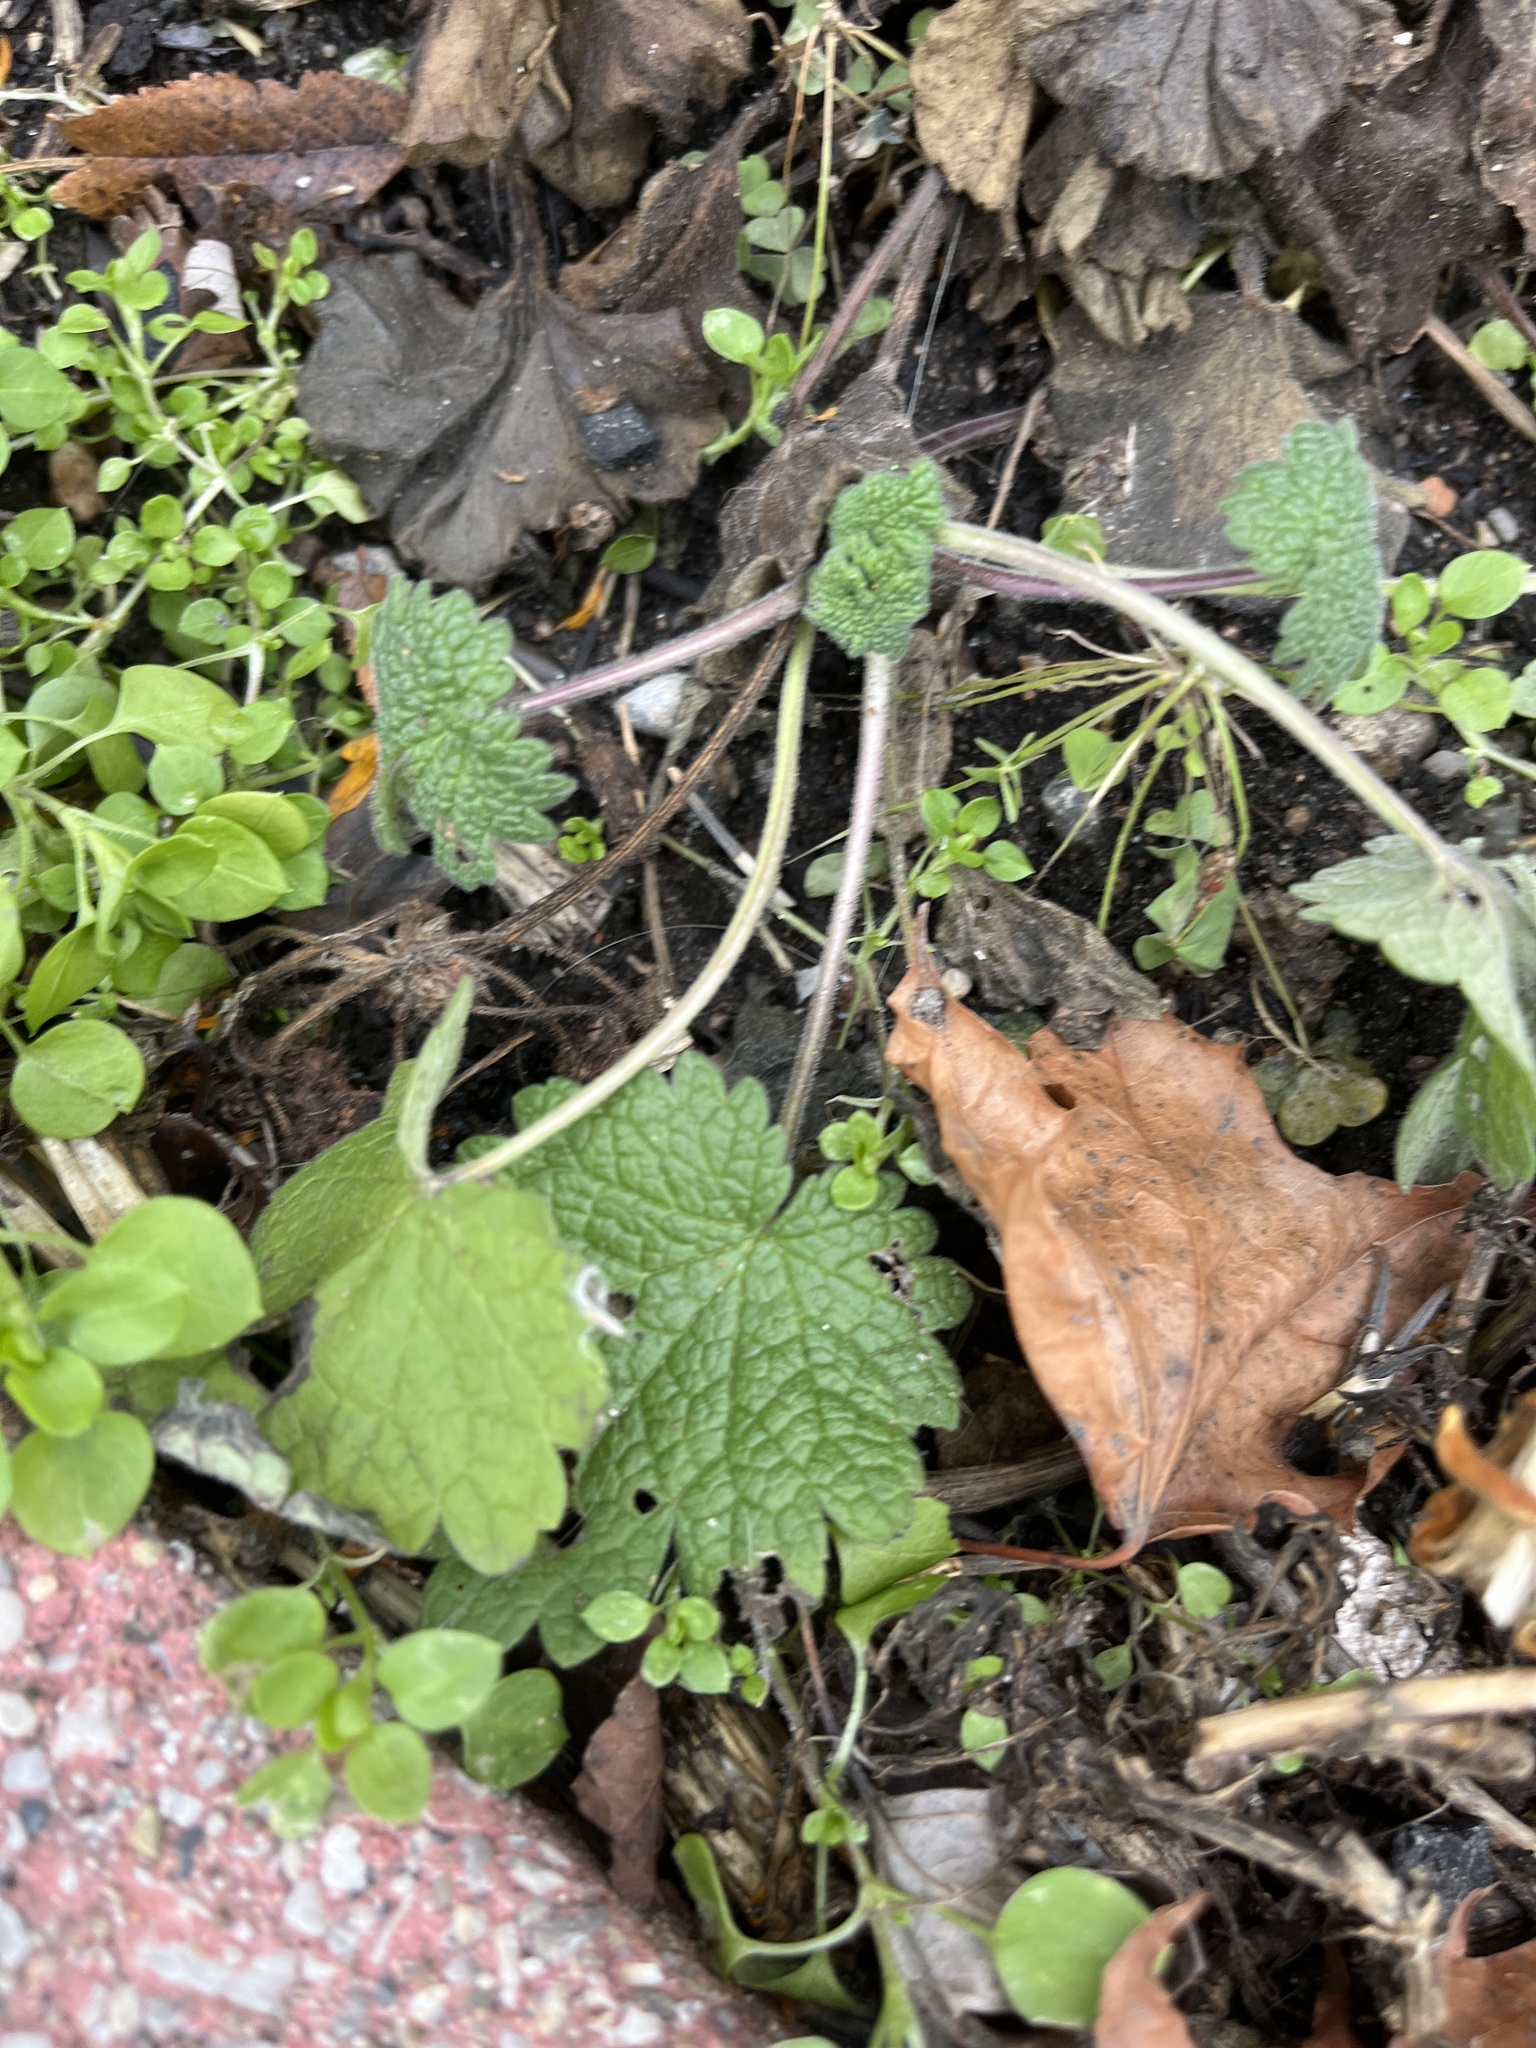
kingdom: Plantae
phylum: Tracheophyta
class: Magnoliopsida
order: Lamiales
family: Lamiaceae
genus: Leonurus
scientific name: Leonurus cardiaca
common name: Motherwort
